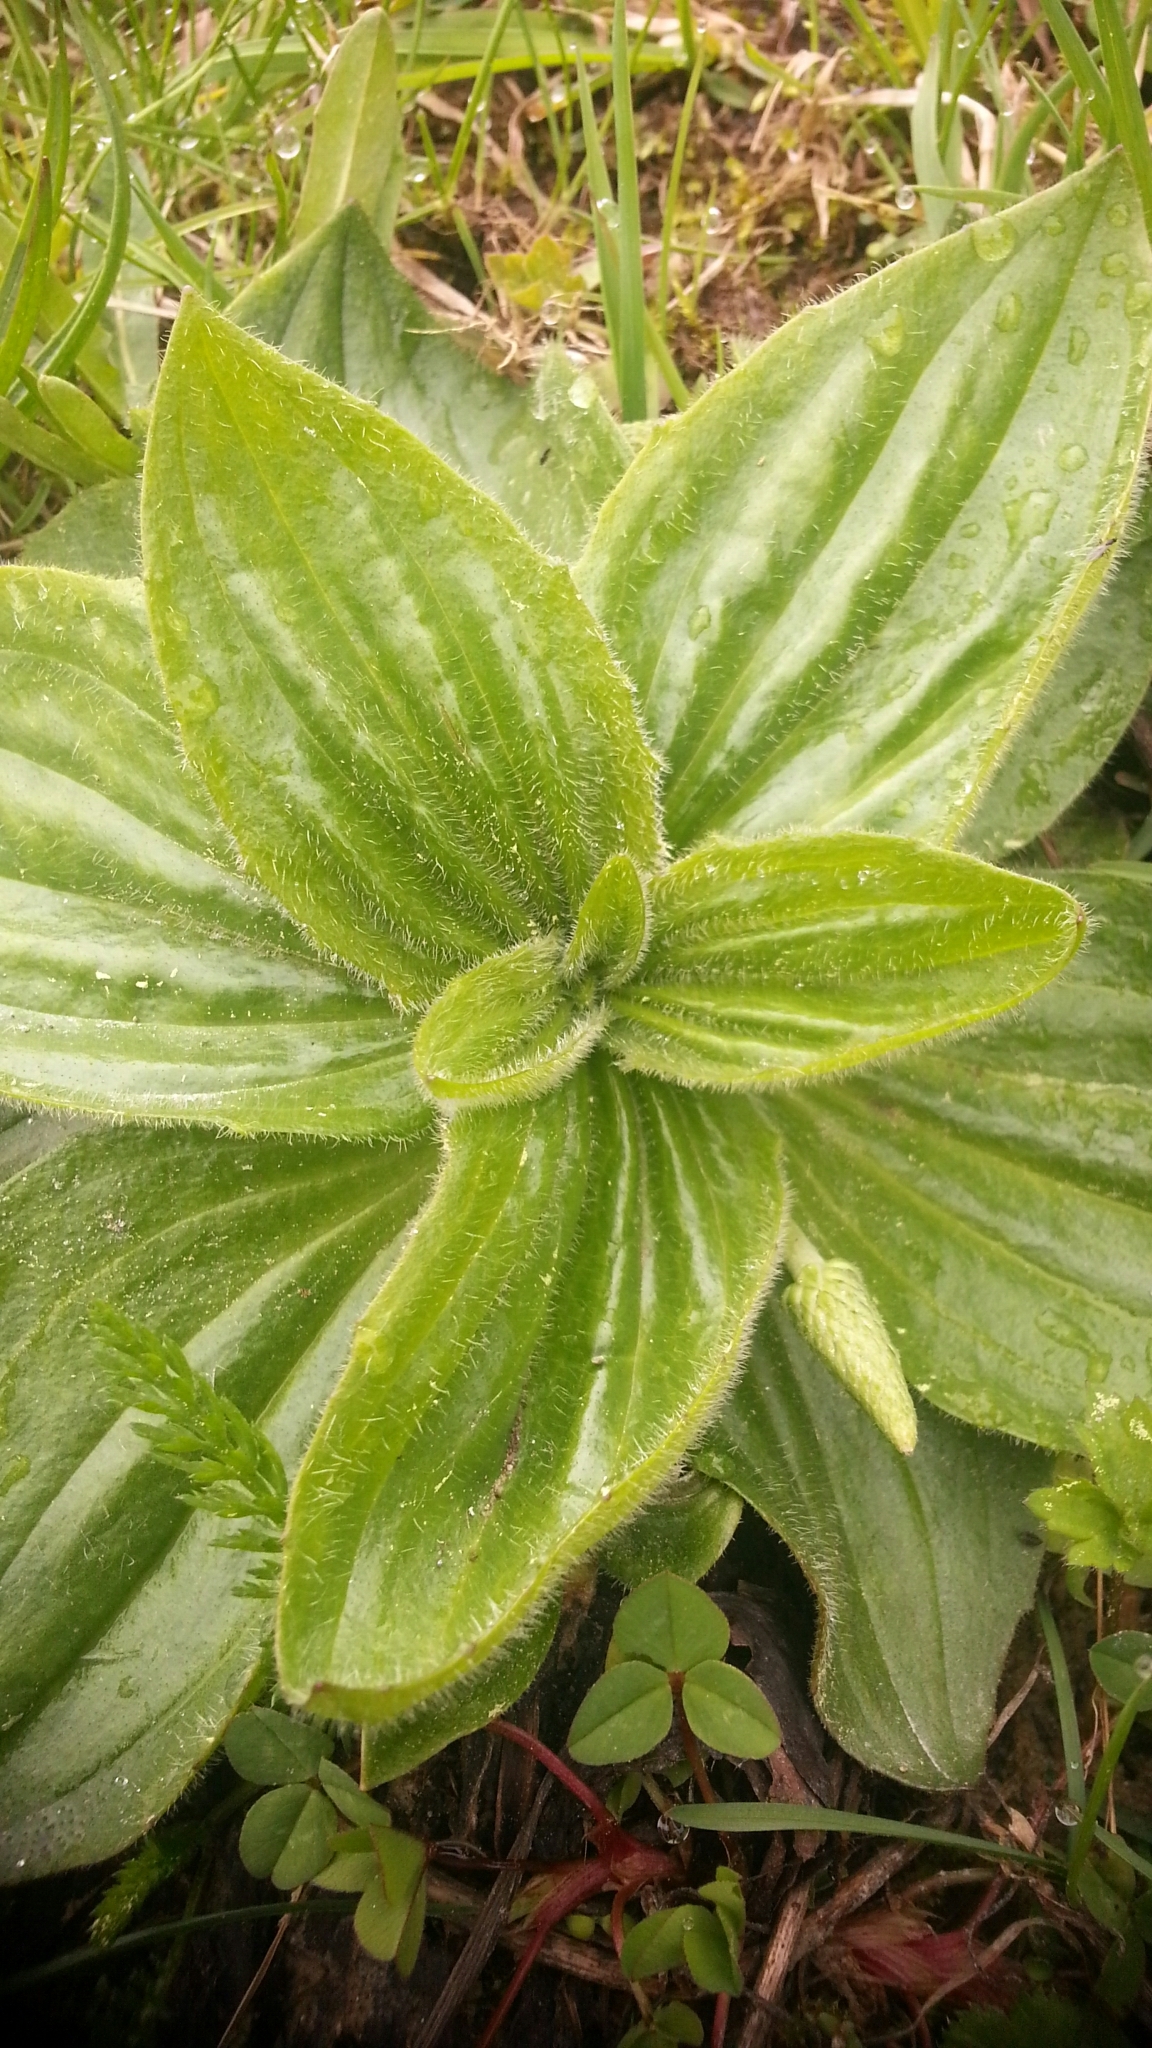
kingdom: Plantae
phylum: Tracheophyta
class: Magnoliopsida
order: Lamiales
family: Plantaginaceae
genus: Plantago
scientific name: Plantago media
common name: Hoary plantain
